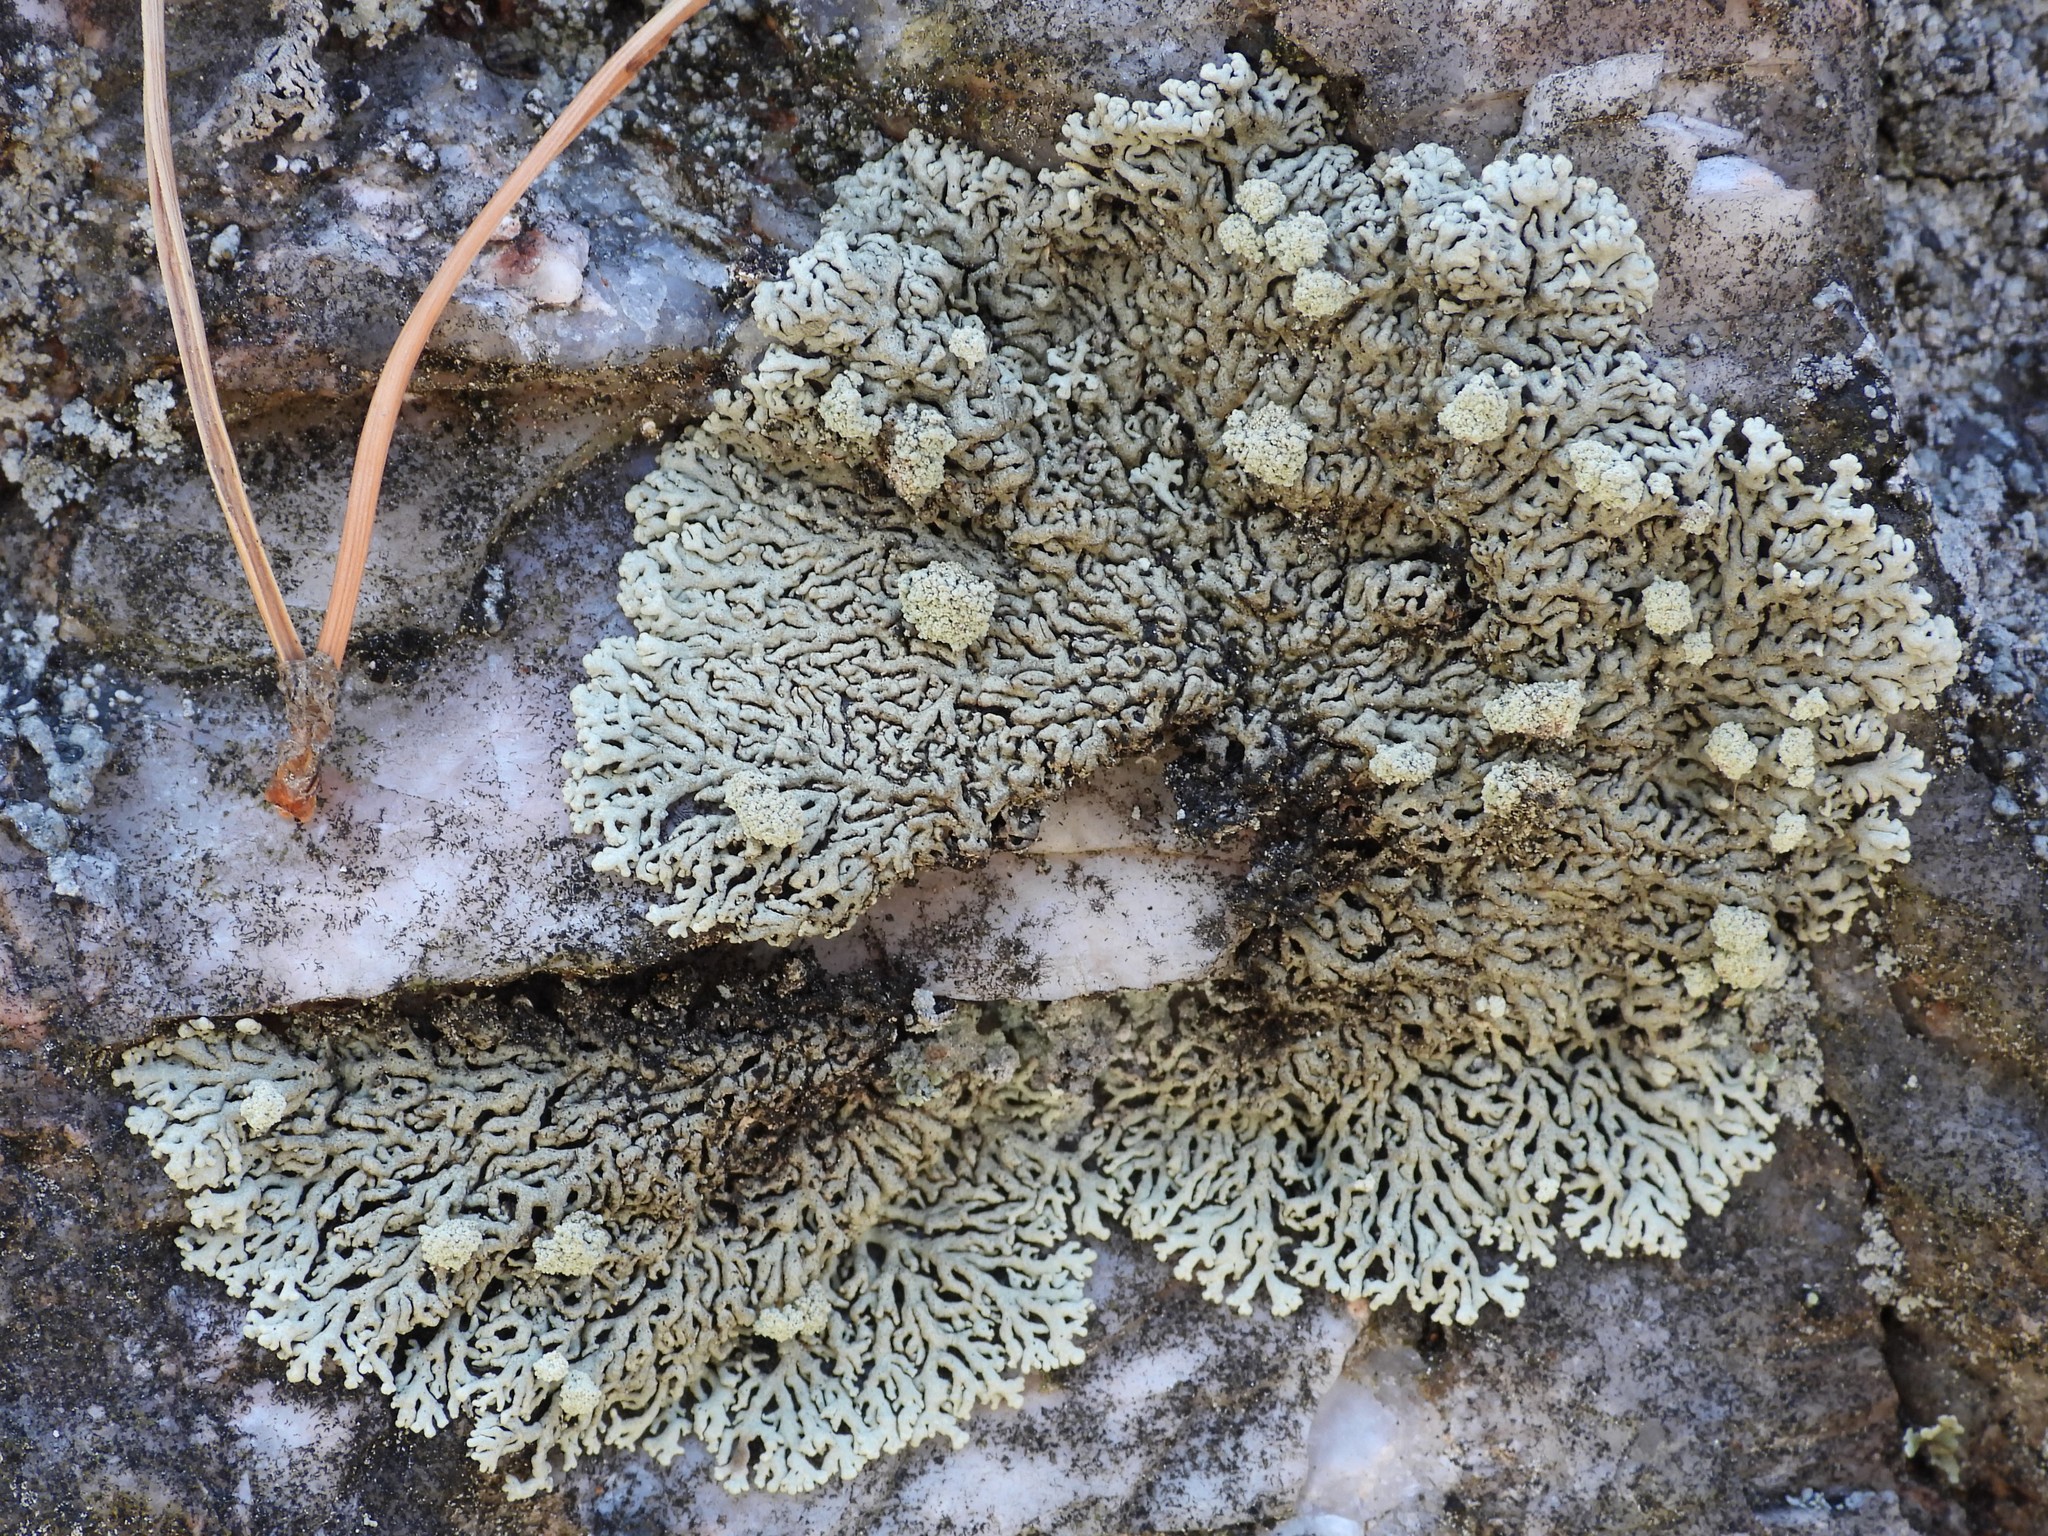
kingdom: Fungi
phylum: Ascomycota
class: Lecanoromycetes
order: Lecanorales
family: Parmeliaceae
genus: Arctoparmelia
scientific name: Arctoparmelia incurva
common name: Bent ring lichen
